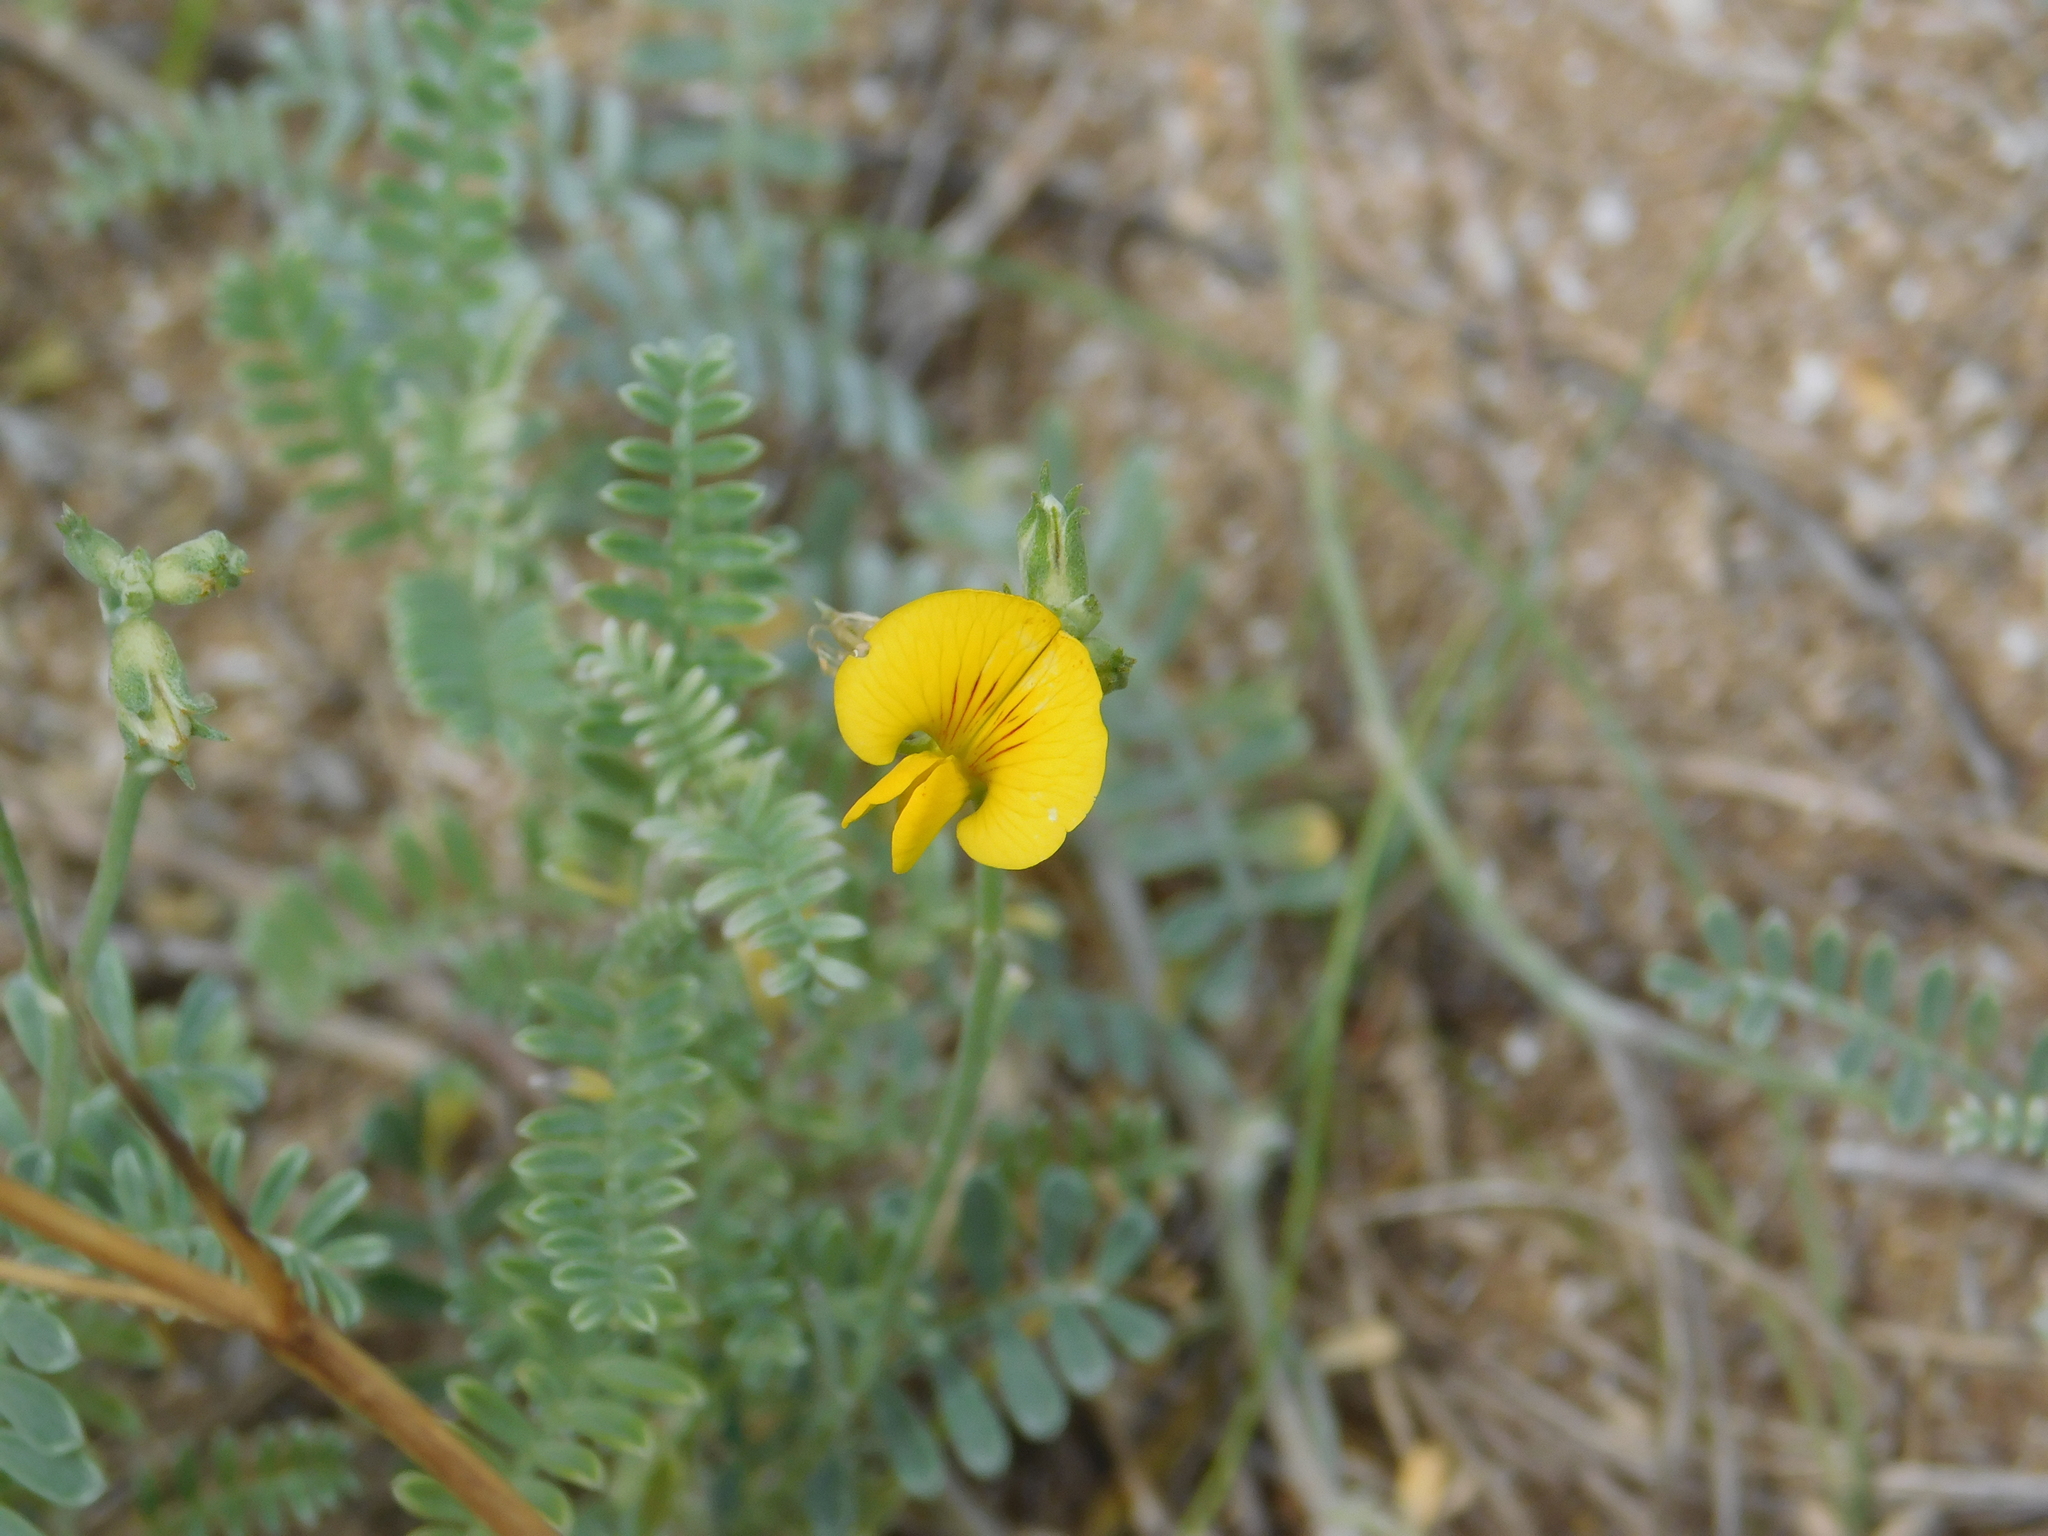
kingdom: Plantae
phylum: Tracheophyta
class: Magnoliopsida
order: Fabales
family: Fabaceae
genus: Adesmia
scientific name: Adesmia incana
